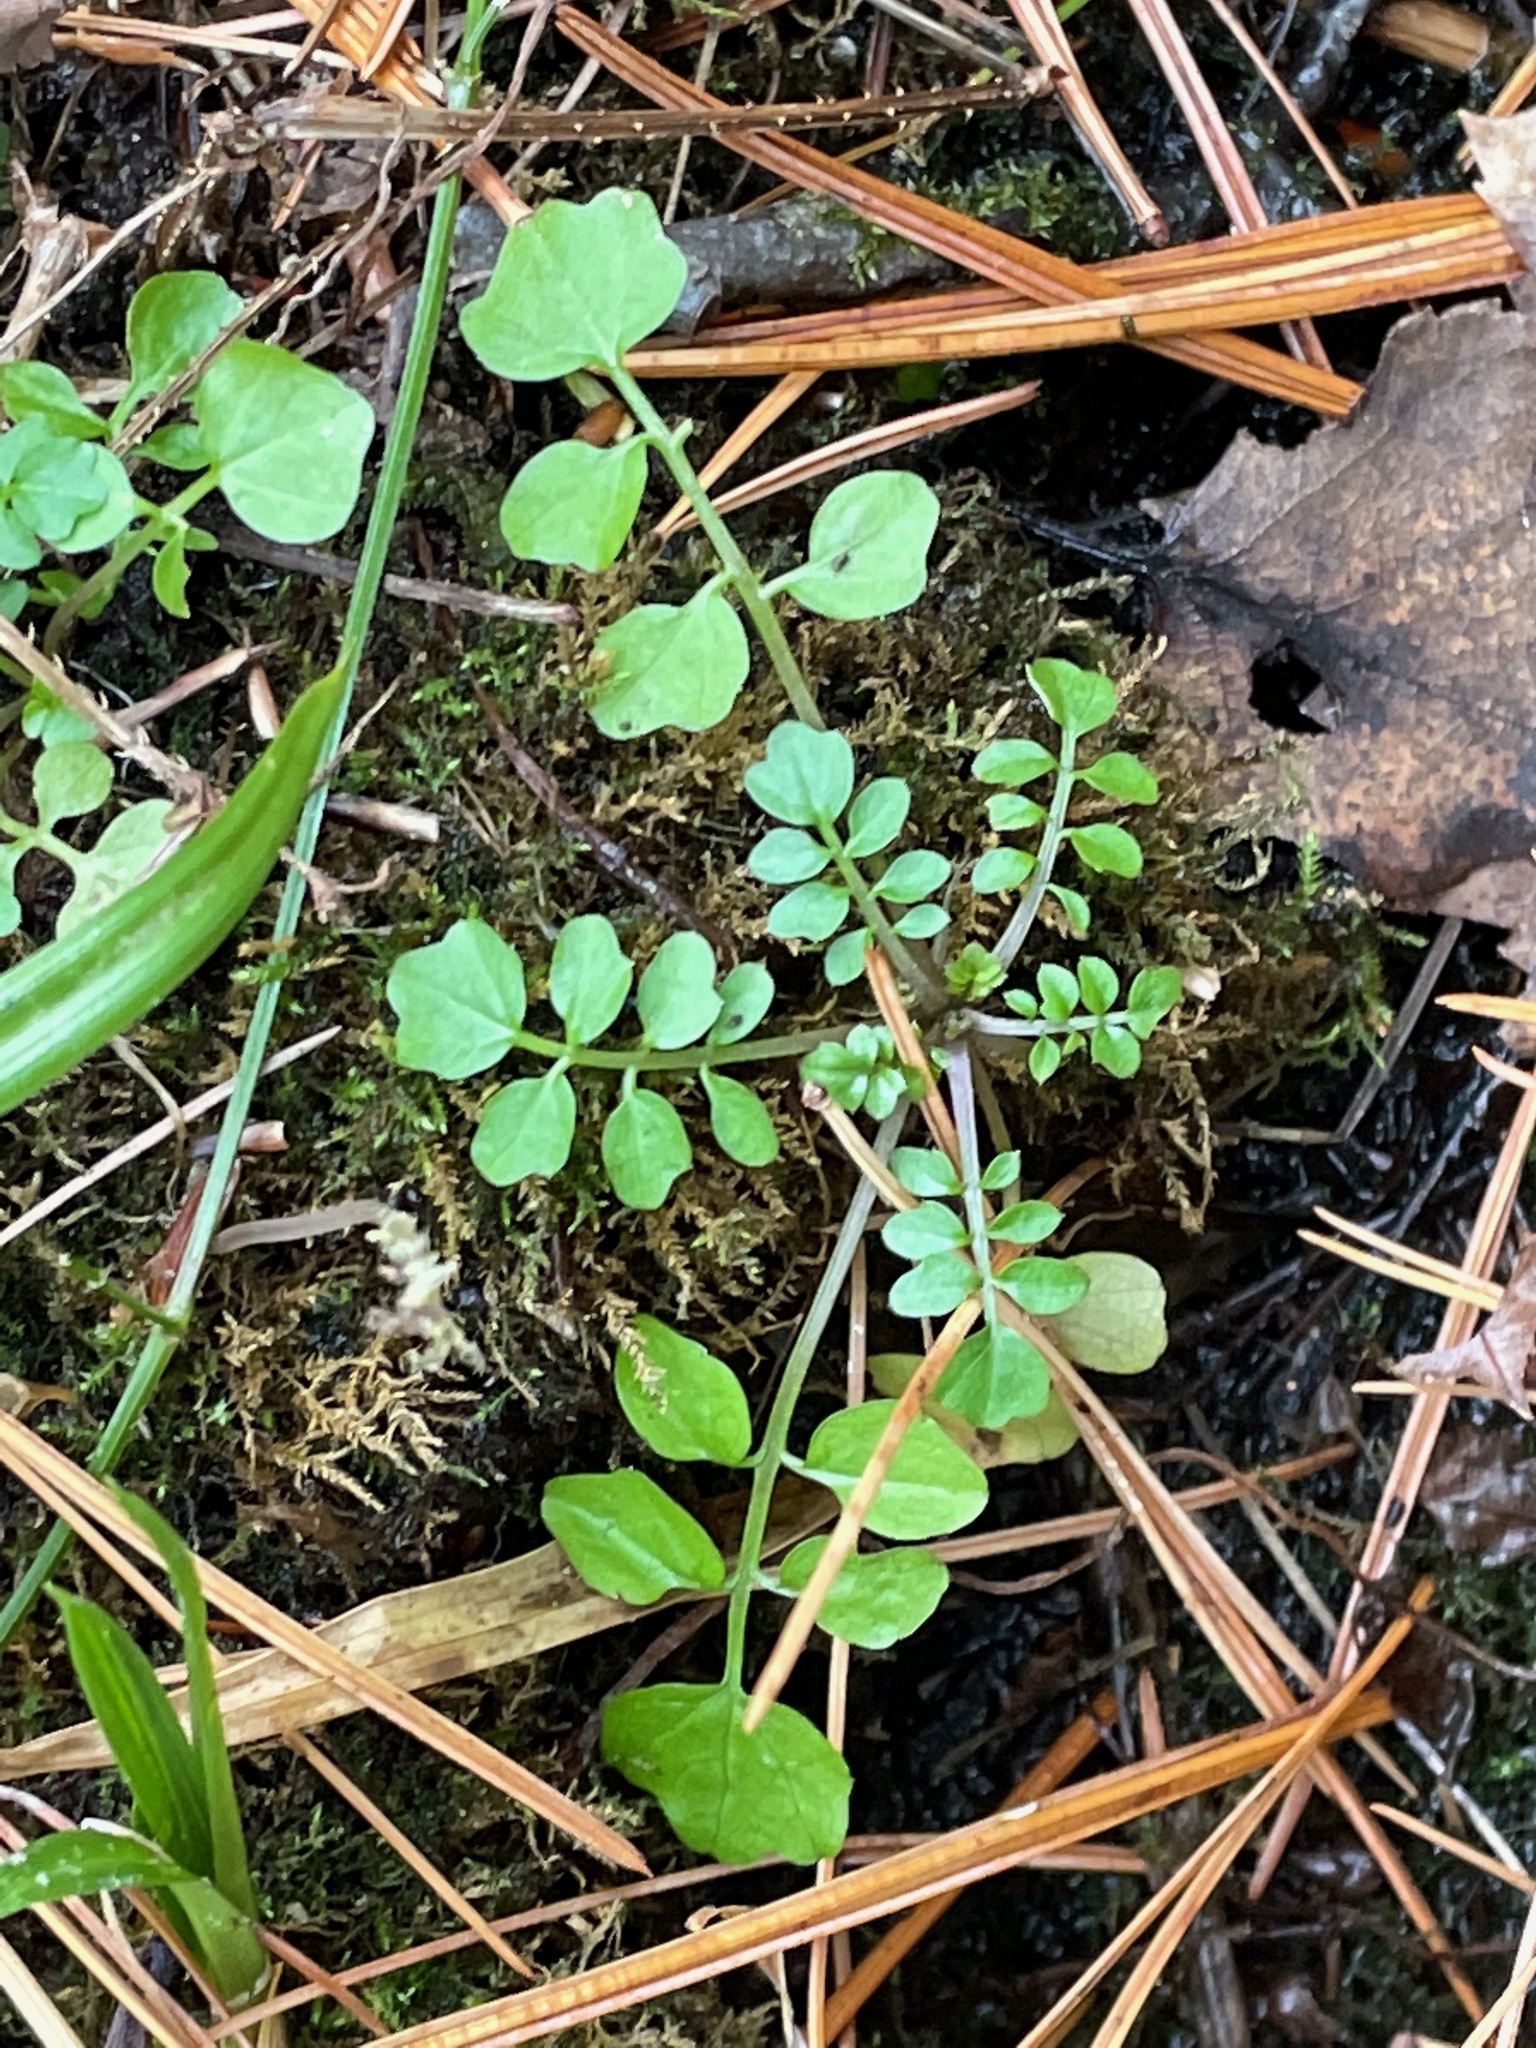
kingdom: Plantae
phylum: Tracheophyta
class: Magnoliopsida
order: Brassicales
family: Brassicaceae
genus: Cardamine
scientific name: Cardamine pensylvanica
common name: Pennsylvania bittercress
